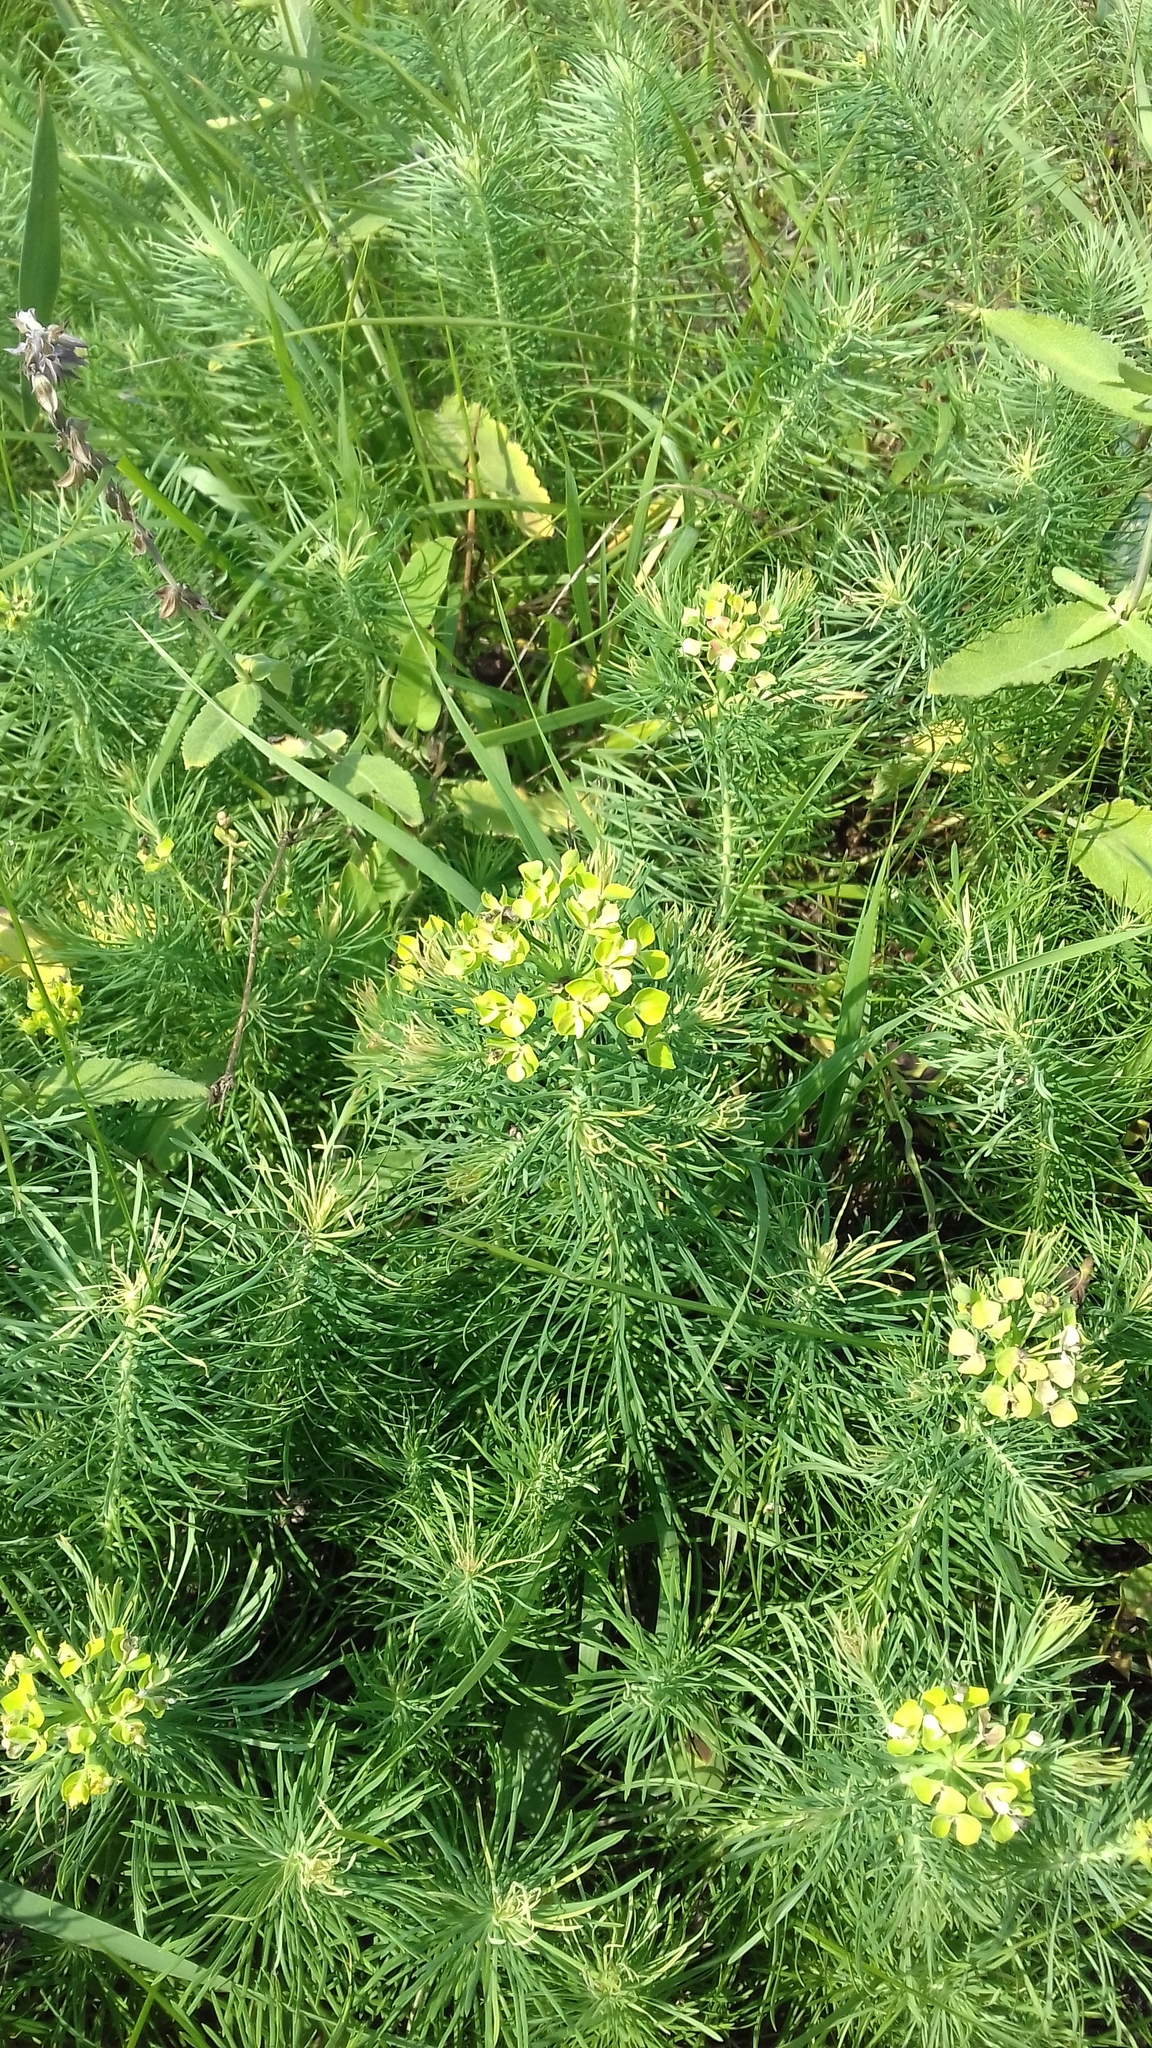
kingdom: Plantae
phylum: Tracheophyta
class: Magnoliopsida
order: Malpighiales
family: Euphorbiaceae
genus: Euphorbia
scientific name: Euphorbia cyparissias
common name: Cypress spurge
